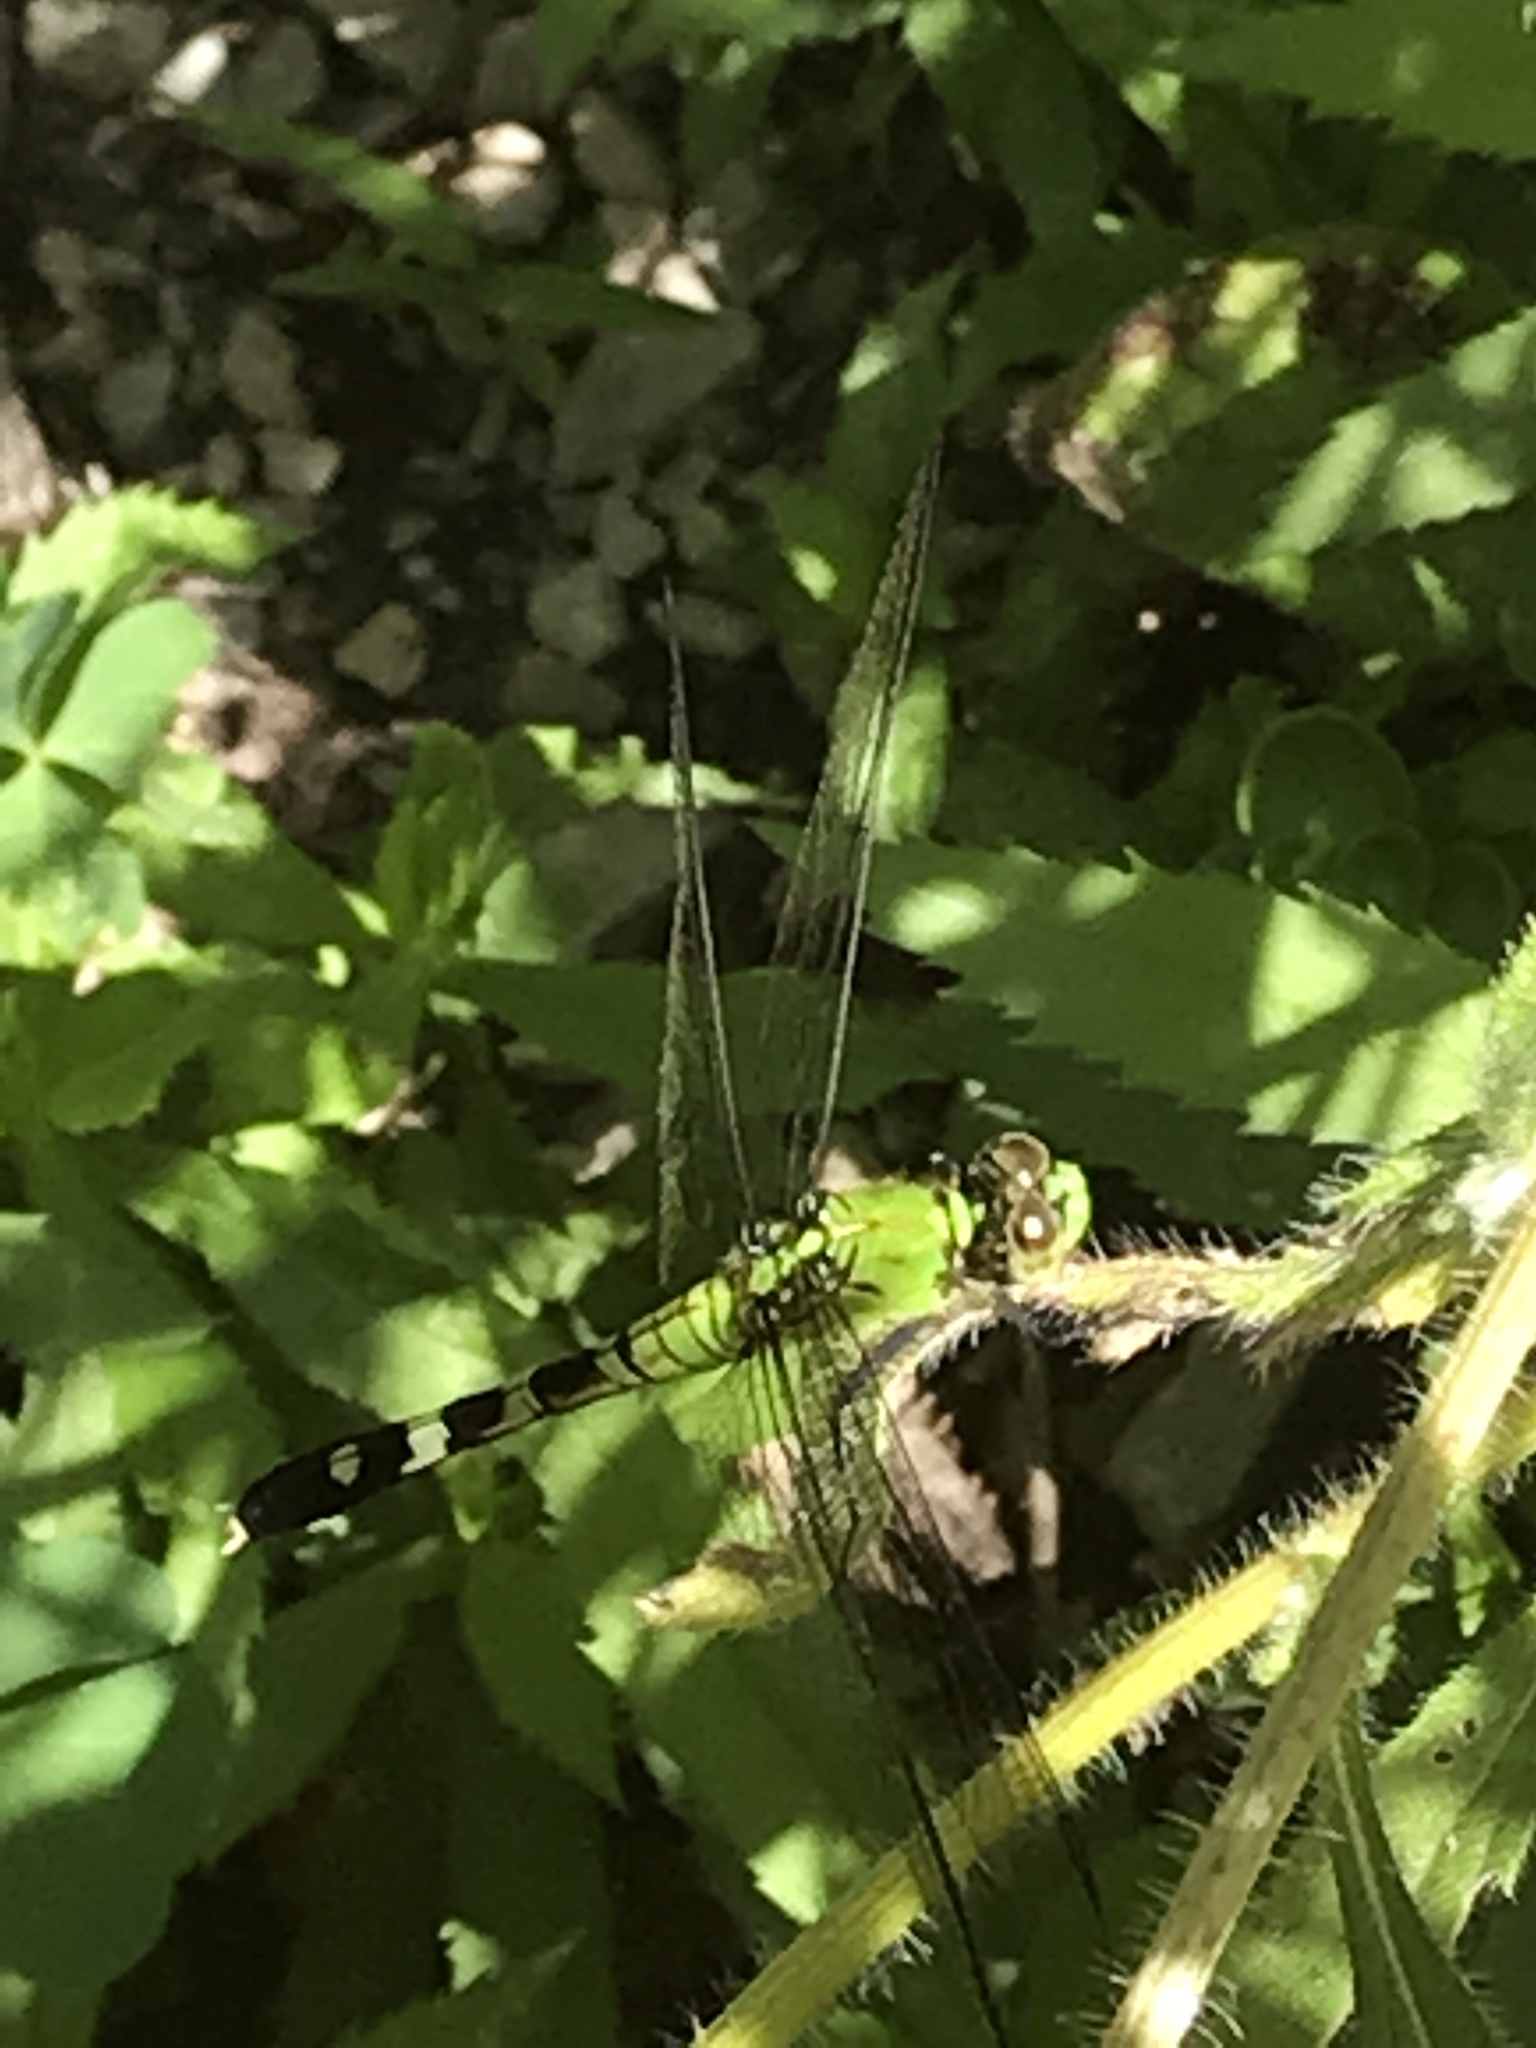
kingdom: Animalia
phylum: Arthropoda
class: Insecta
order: Odonata
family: Libellulidae
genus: Erythemis
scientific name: Erythemis simplicicollis
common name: Eastern pondhawk
